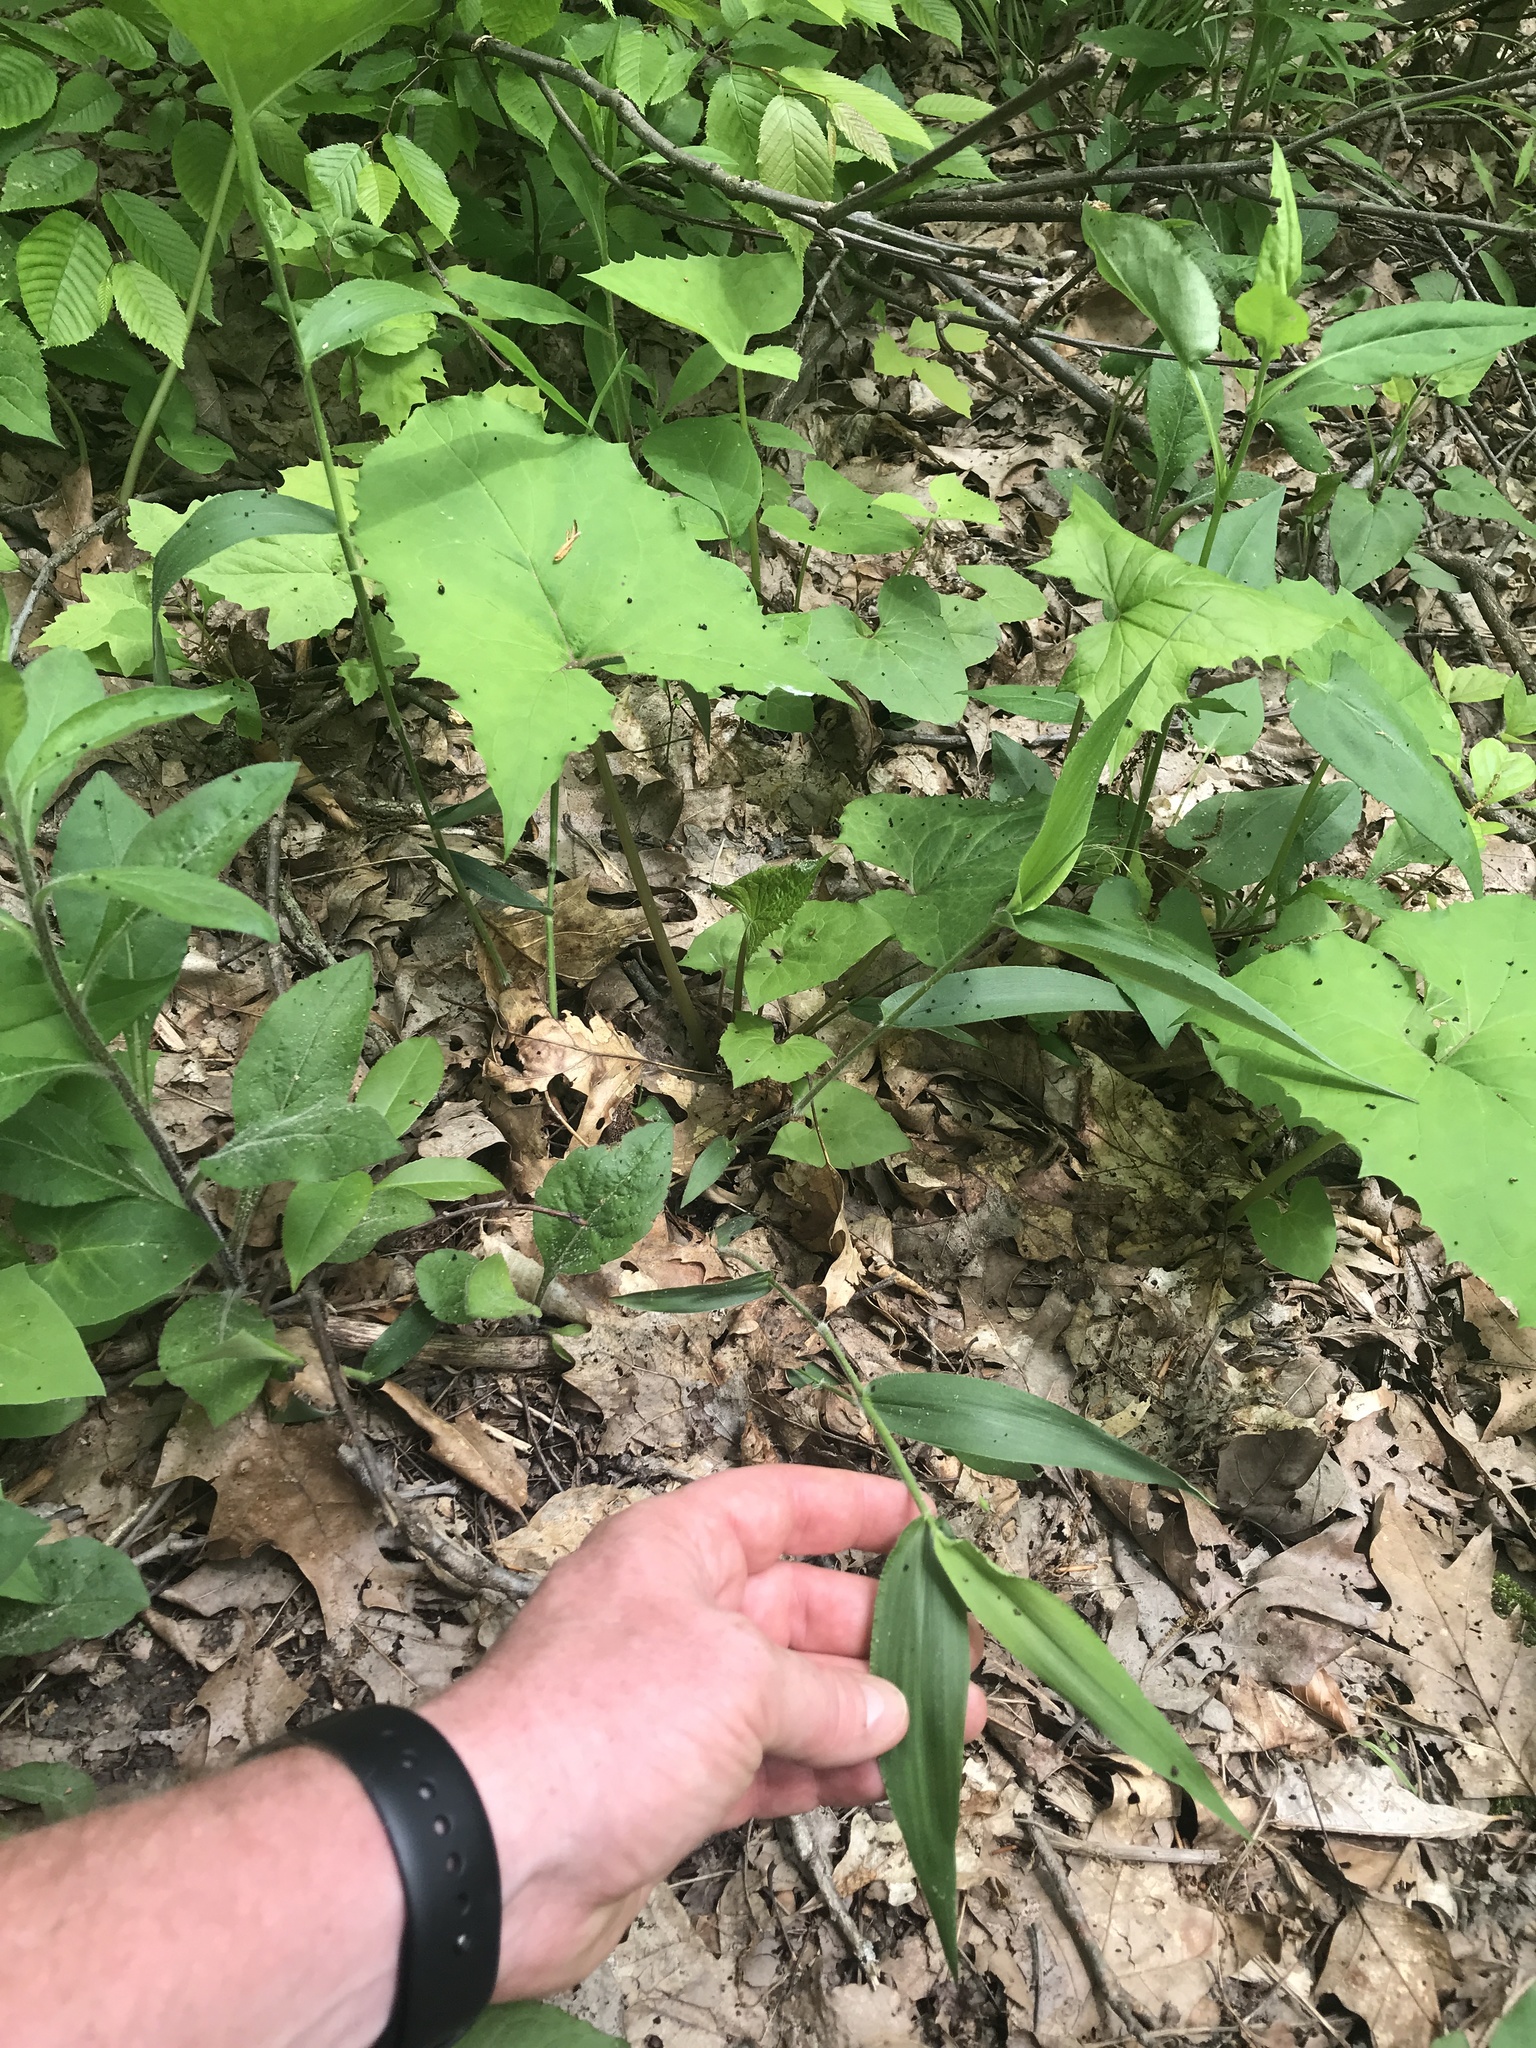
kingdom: Plantae
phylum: Tracheophyta
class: Liliopsida
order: Poales
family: Poaceae
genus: Dichanthelium
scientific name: Dichanthelium boscii
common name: Bosc's panic grass
